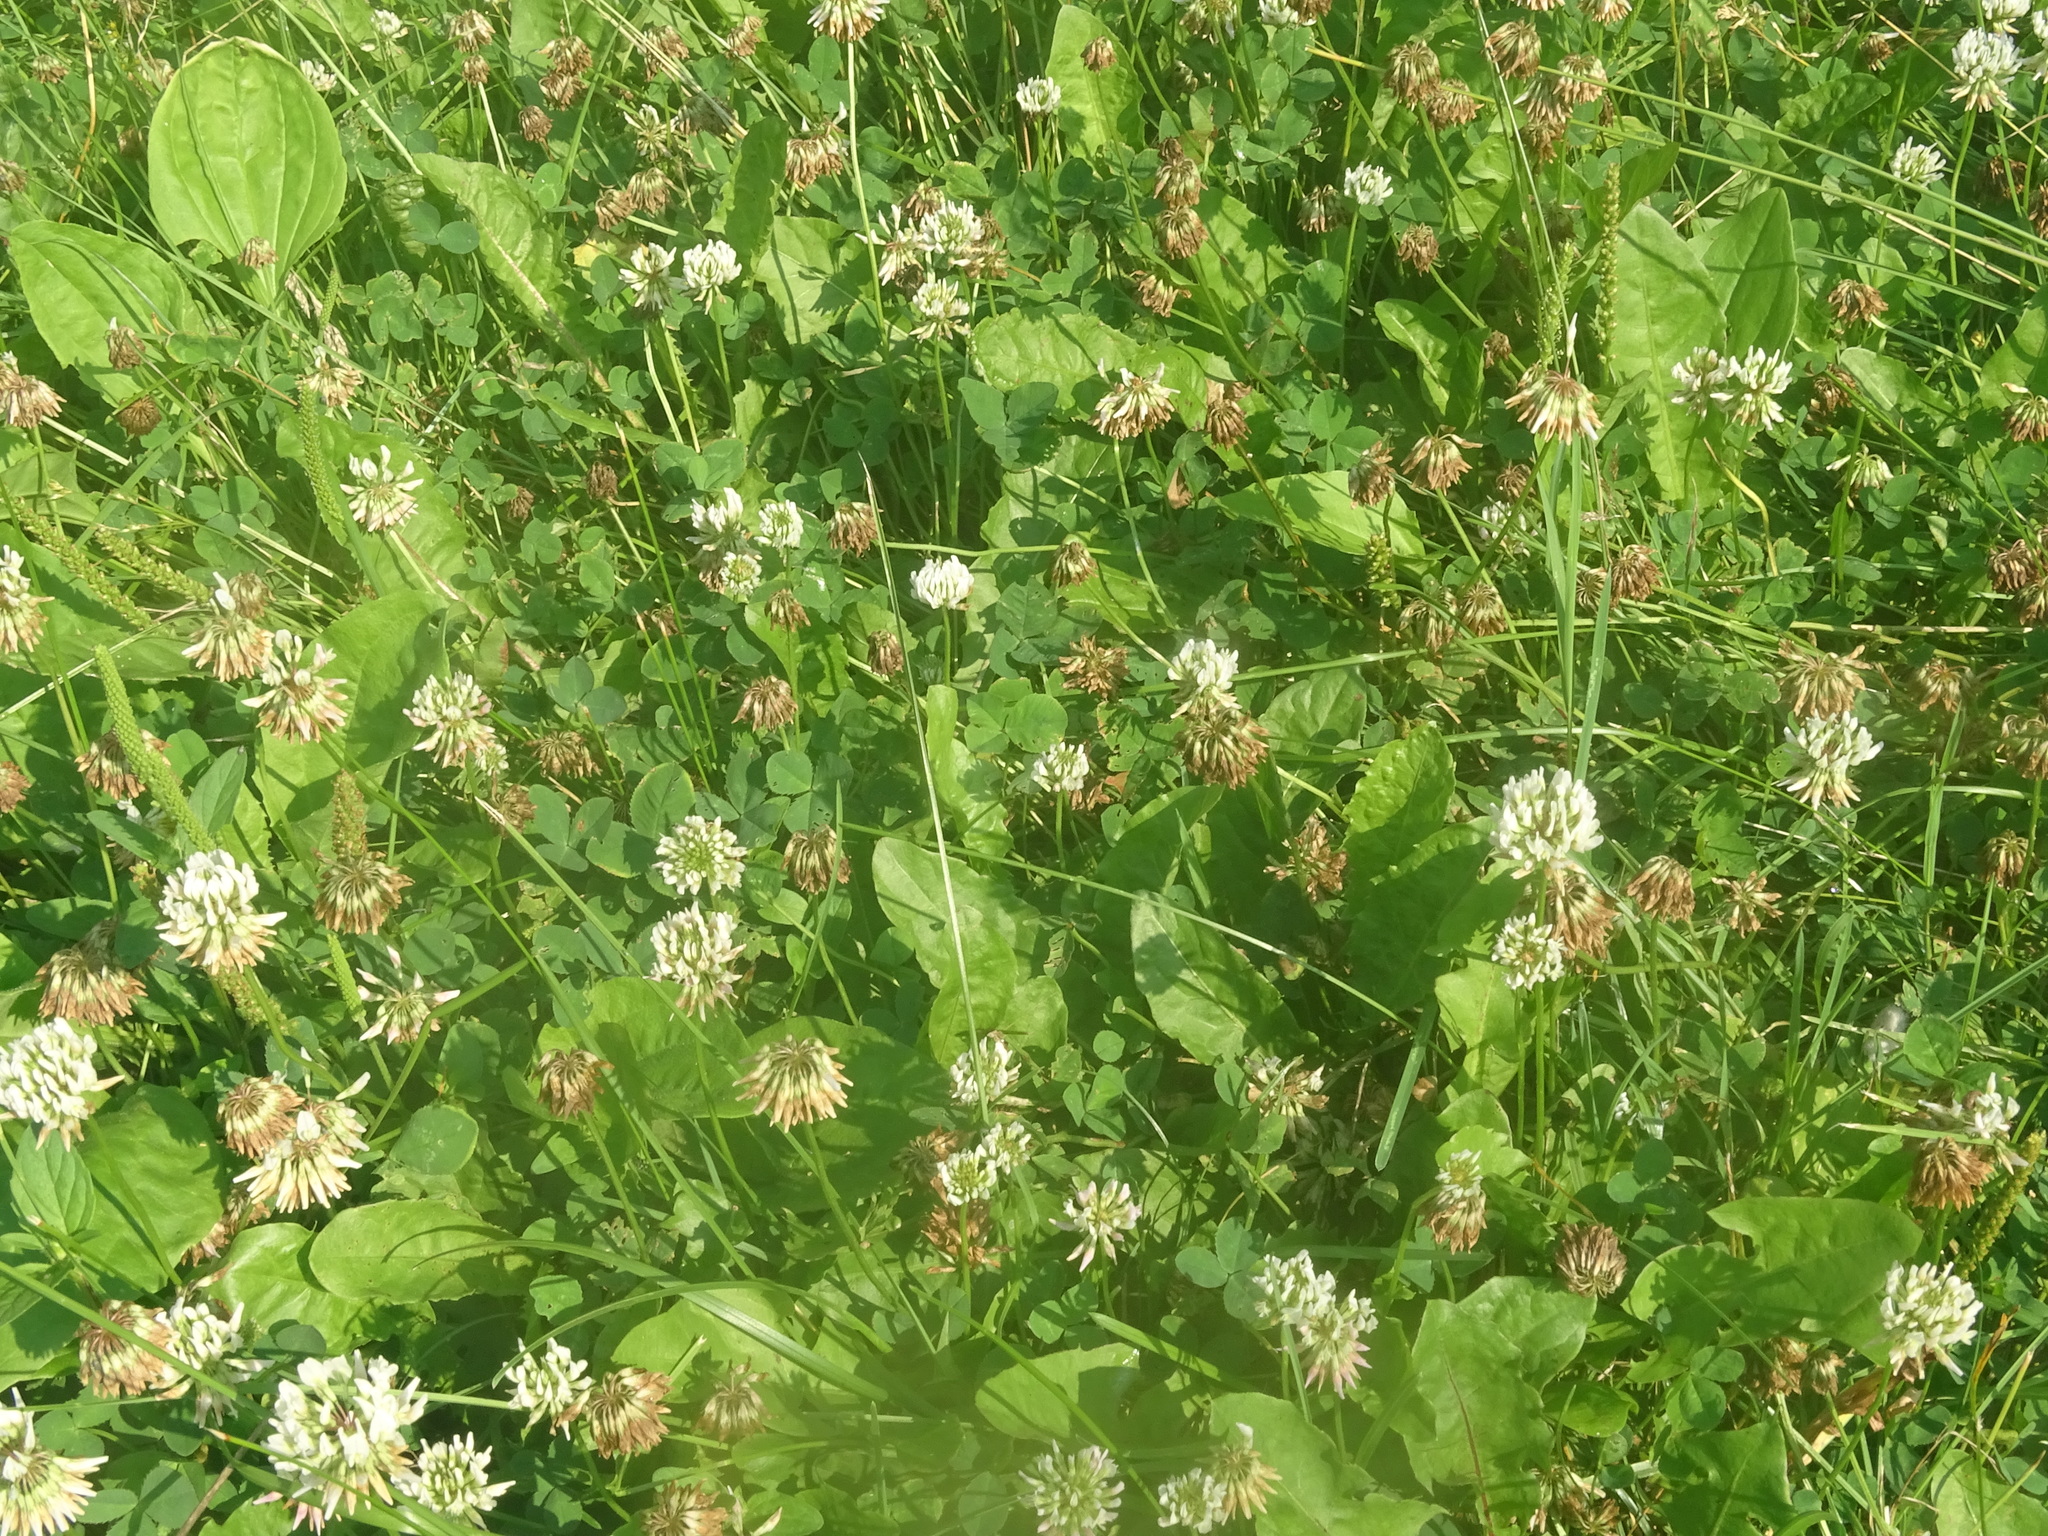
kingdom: Plantae
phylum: Tracheophyta
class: Magnoliopsida
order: Fabales
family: Fabaceae
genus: Trifolium
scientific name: Trifolium repens
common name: White clover
